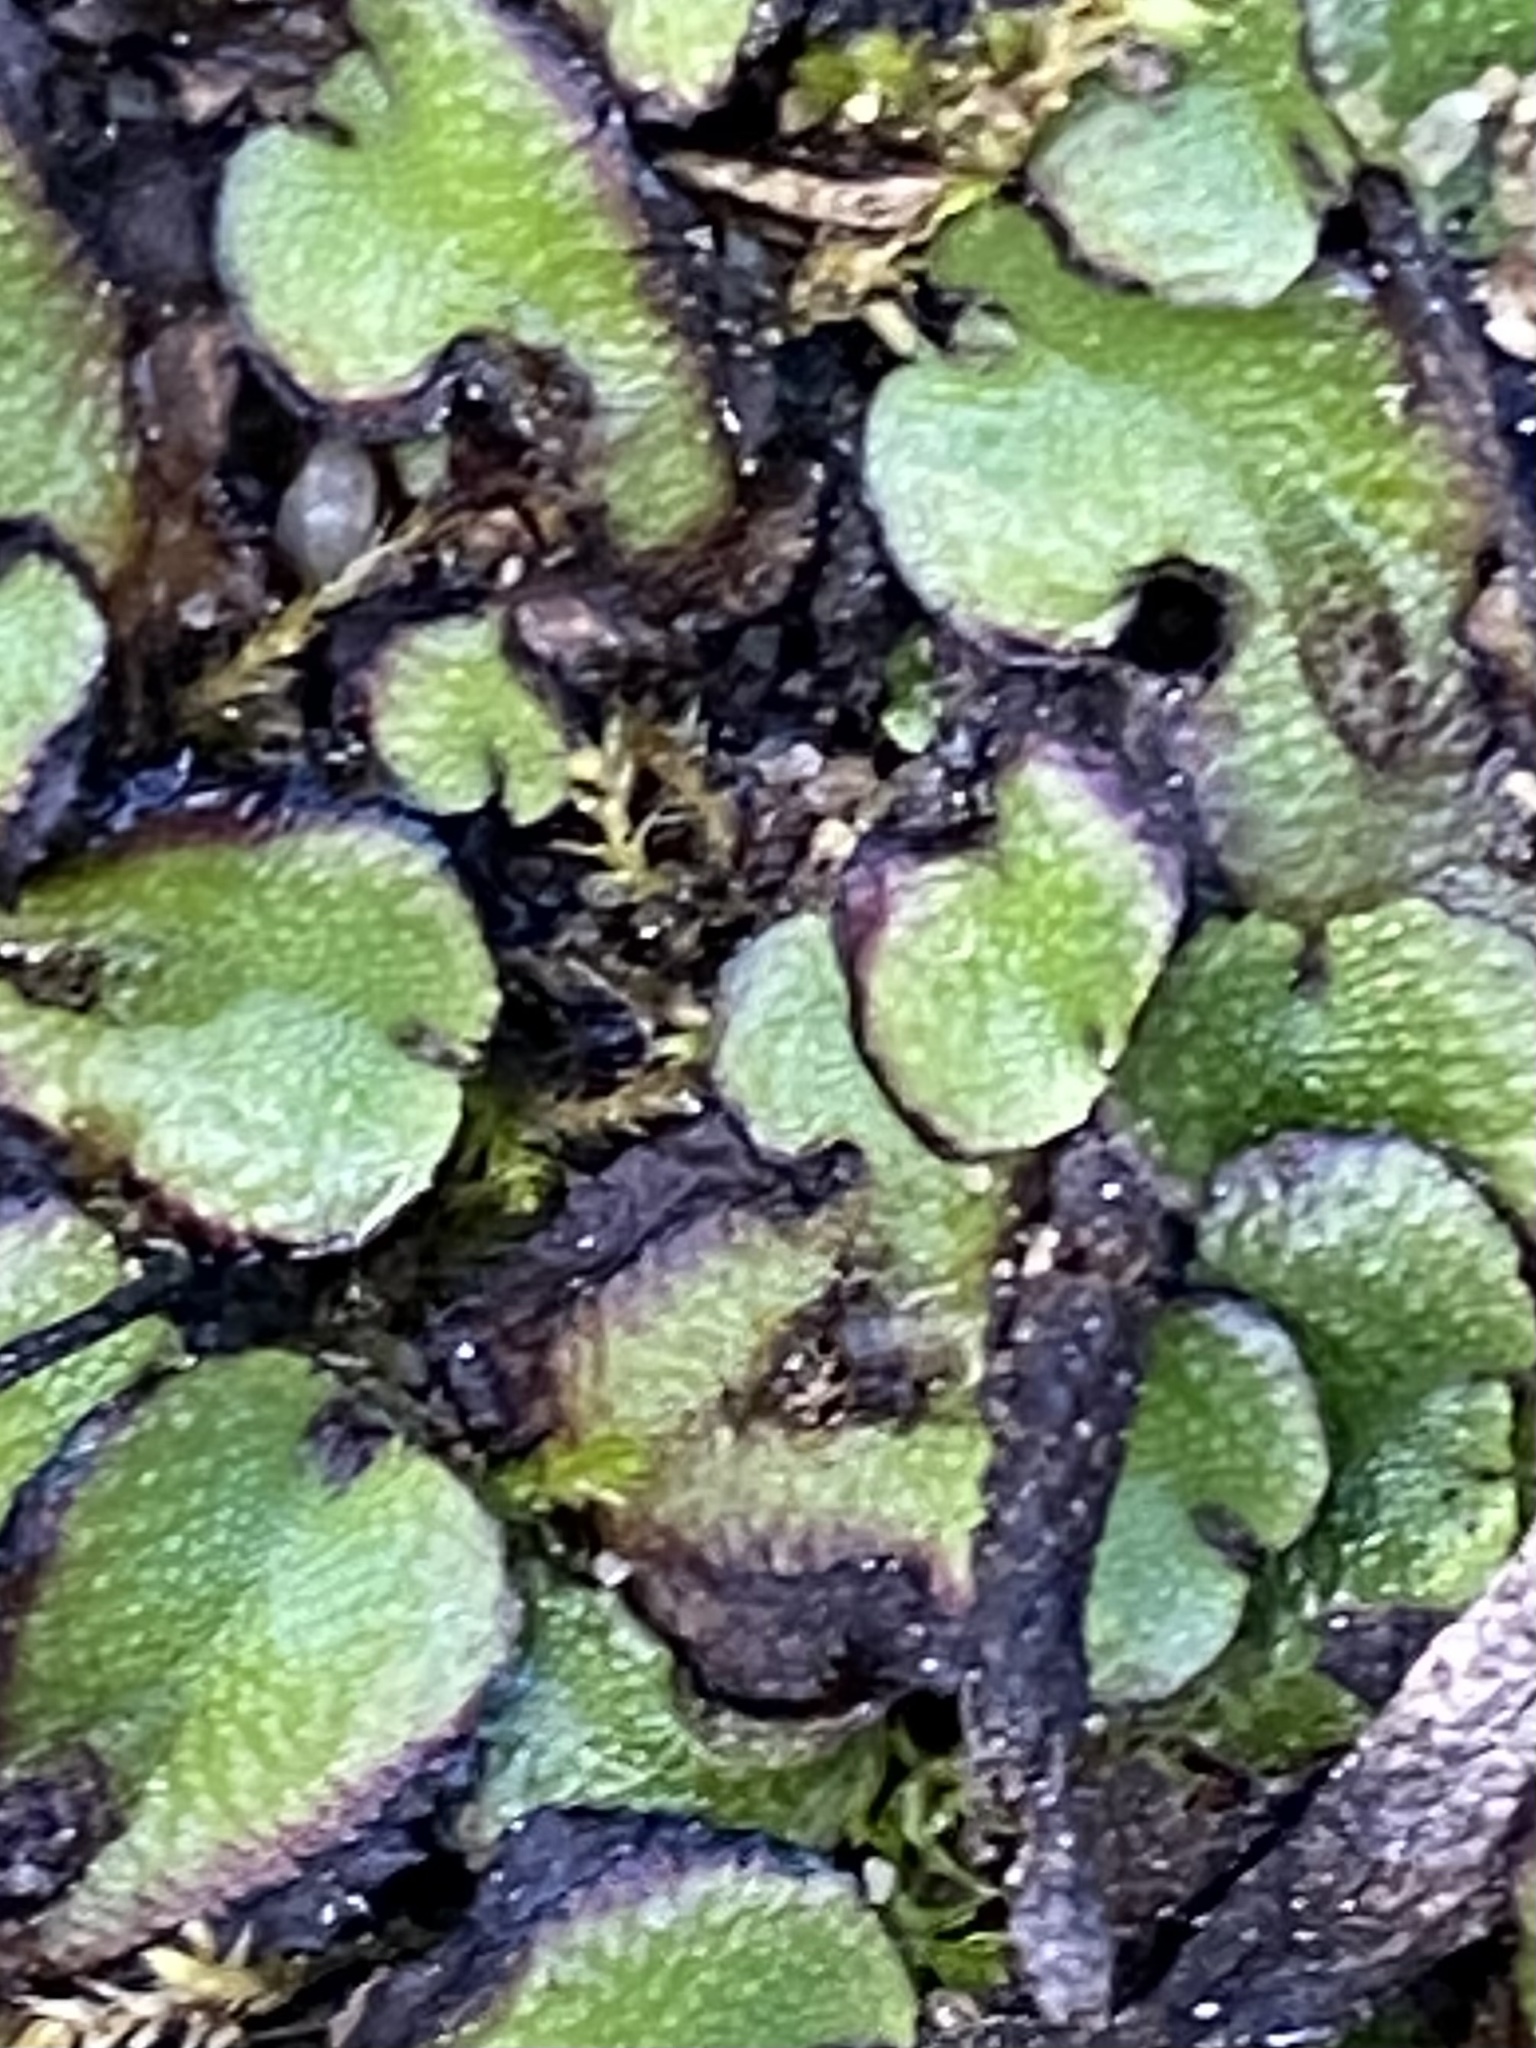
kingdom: Plantae
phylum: Marchantiophyta
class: Marchantiopsida
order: Marchantiales
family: Aytoniaceae
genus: Asterella
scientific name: Asterella californica
